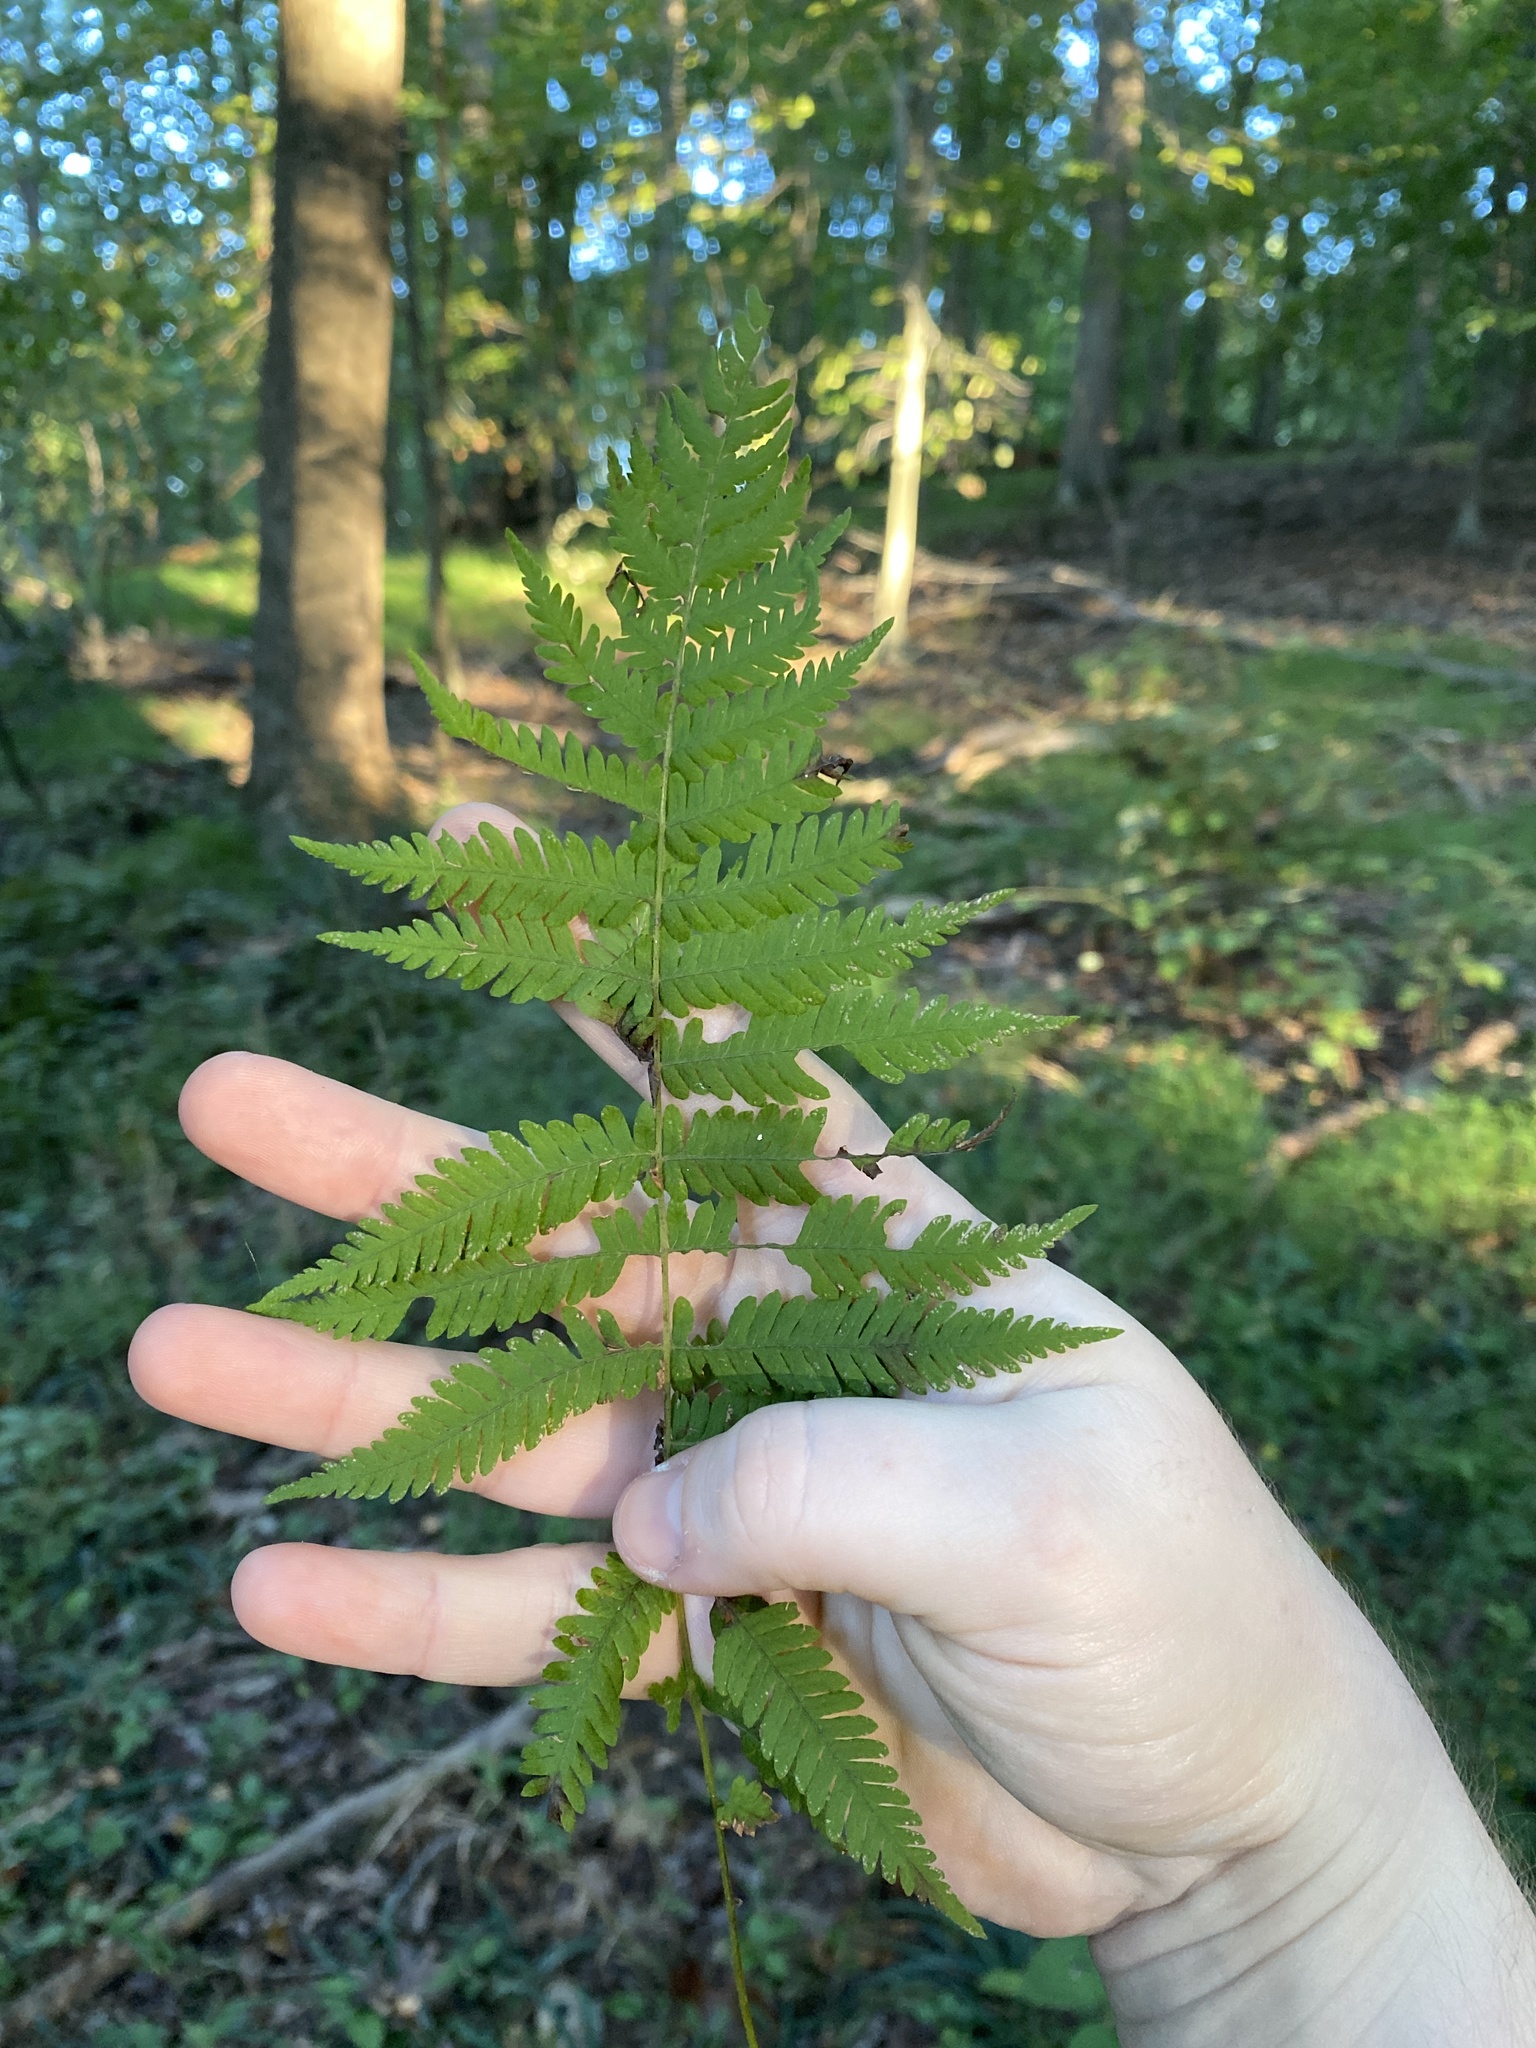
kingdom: Plantae
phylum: Tracheophyta
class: Polypodiopsida
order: Polypodiales
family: Thelypteridaceae
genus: Amauropelta
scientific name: Amauropelta noveboracensis
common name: New york fern
